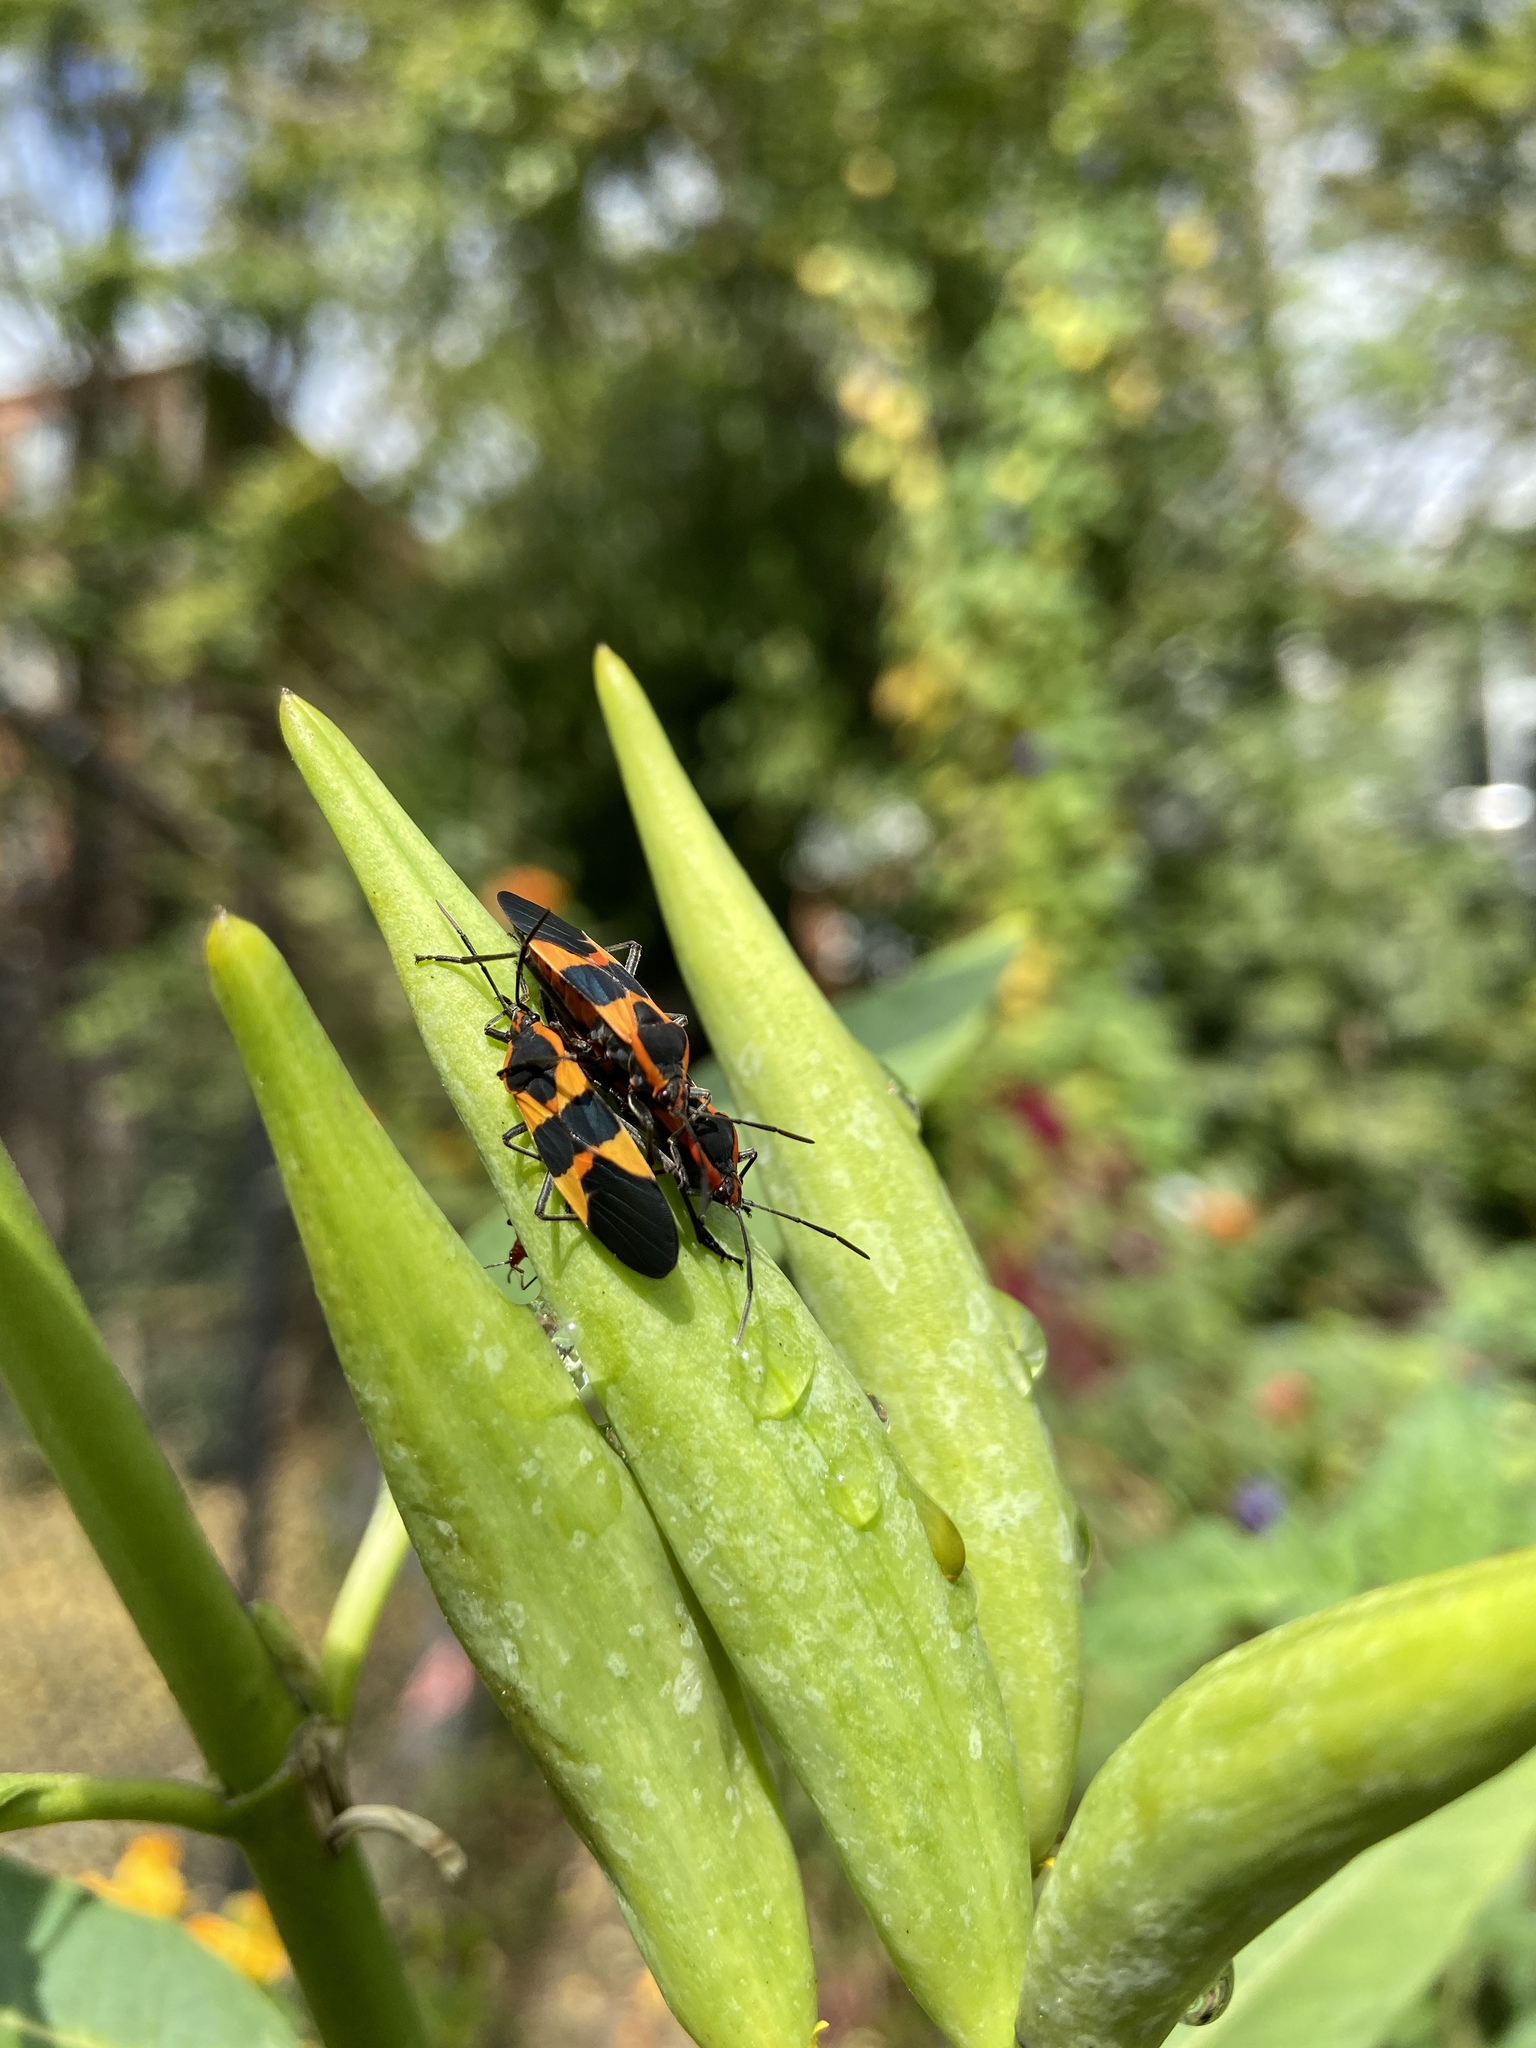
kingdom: Animalia
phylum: Arthropoda
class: Insecta
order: Hemiptera
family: Lygaeidae
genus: Oncopeltus
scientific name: Oncopeltus fasciatus
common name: Large milkweed bug
